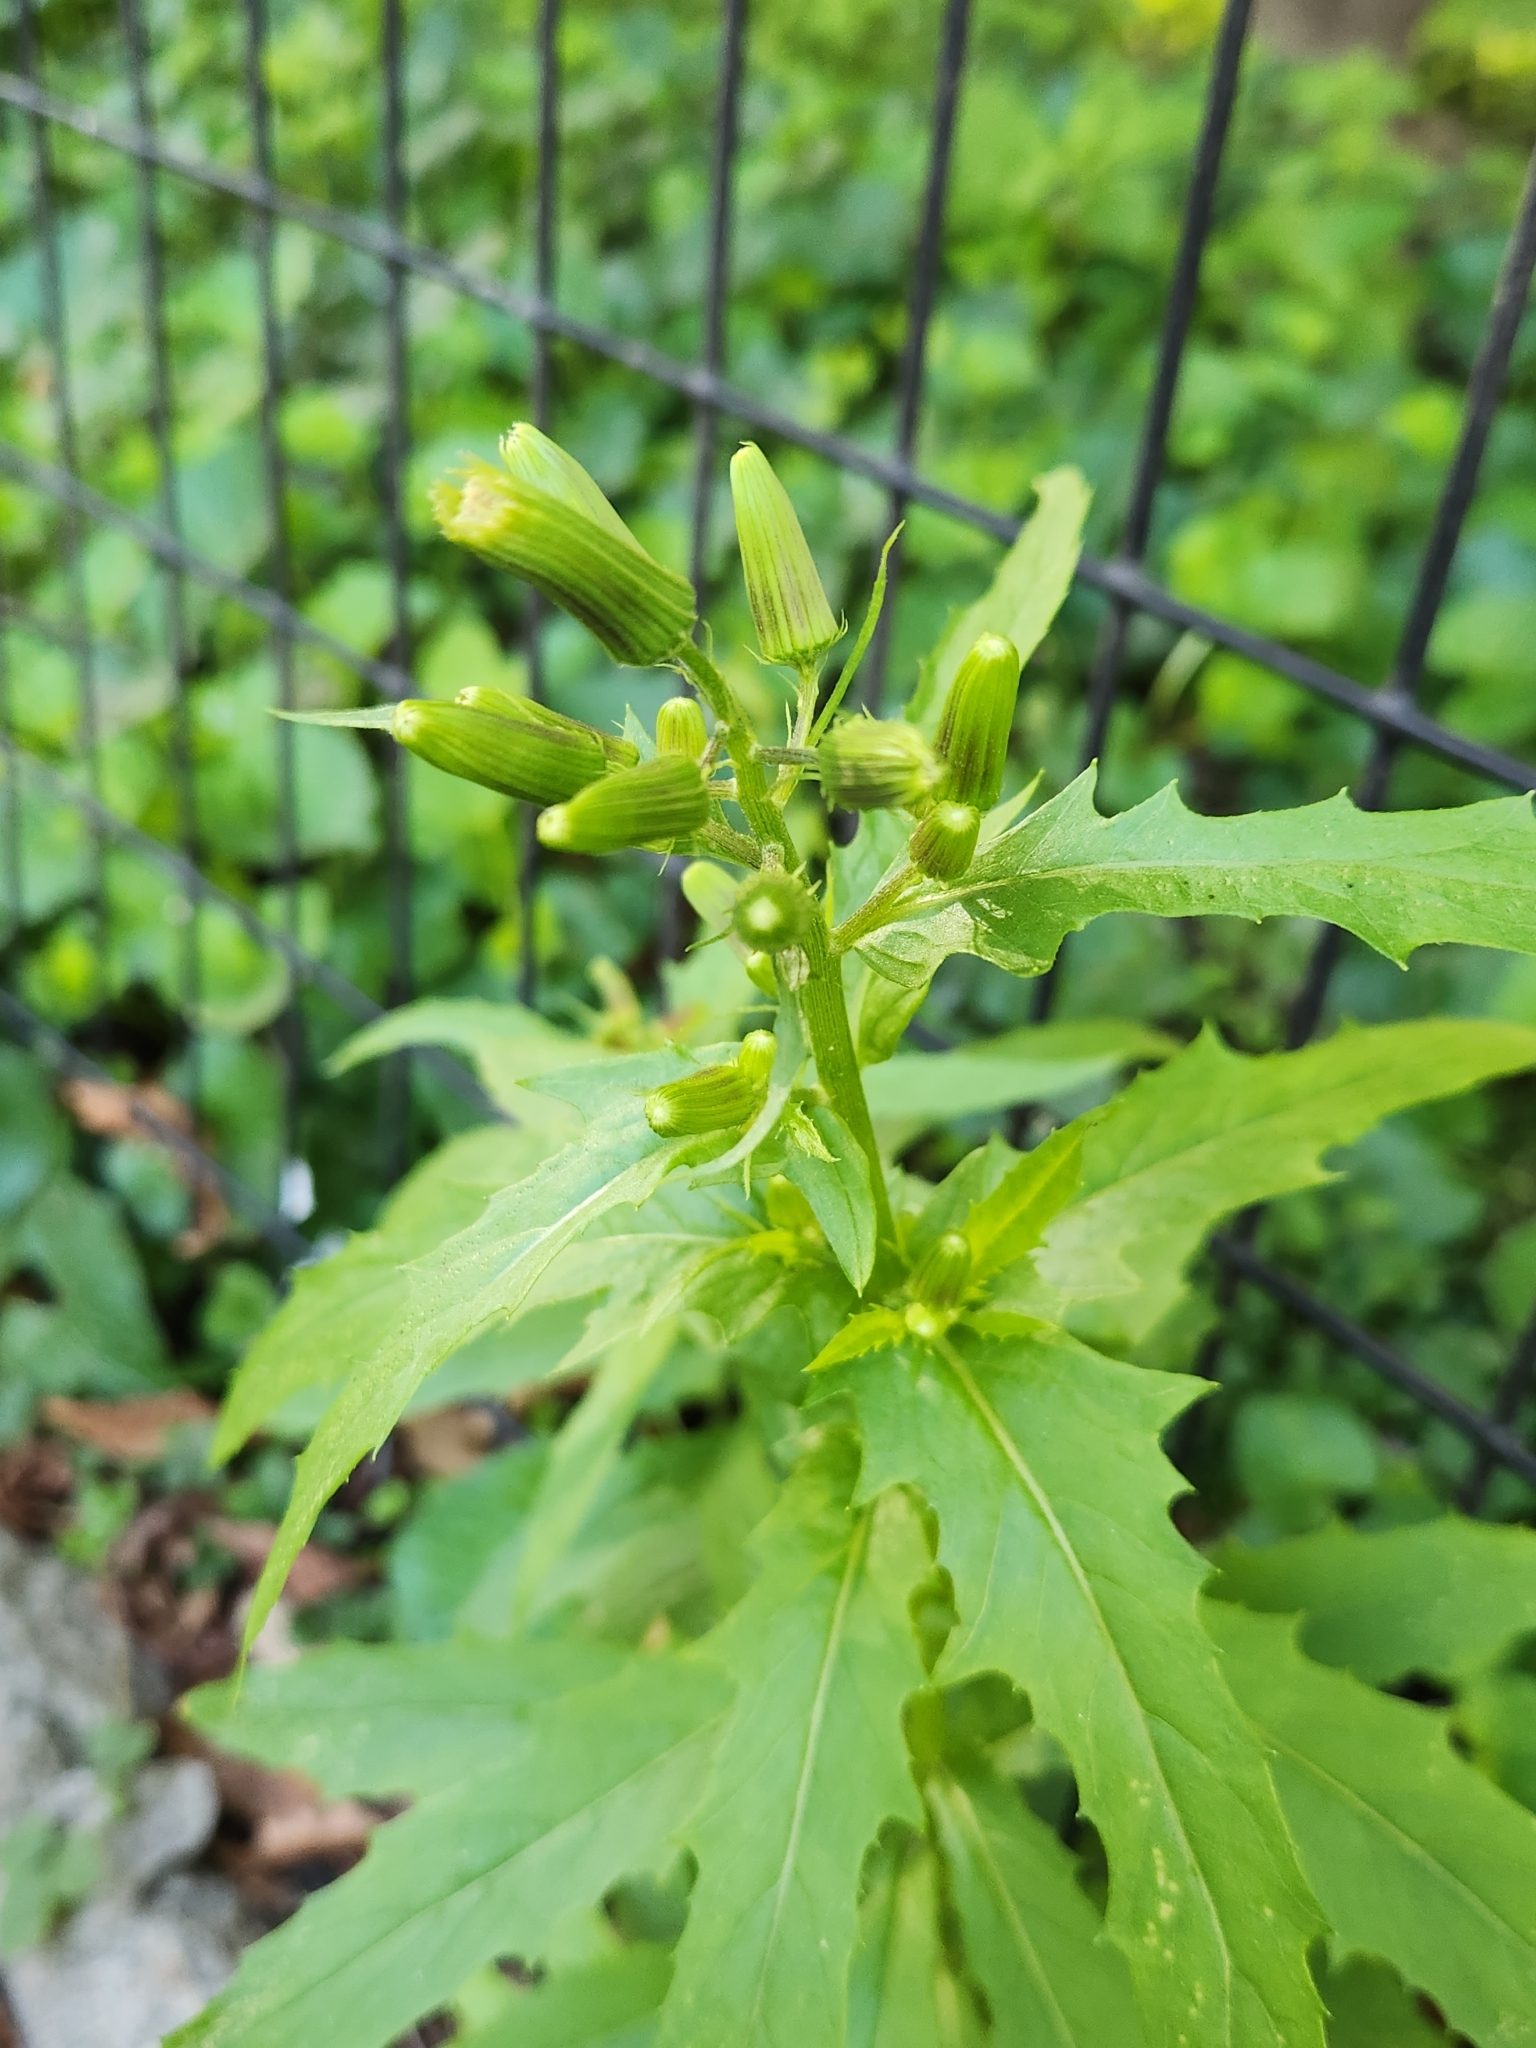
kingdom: Plantae
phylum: Tracheophyta
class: Magnoliopsida
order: Asterales
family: Asteraceae
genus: Erechtites
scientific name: Erechtites hieraciifolius
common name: American burnweed
